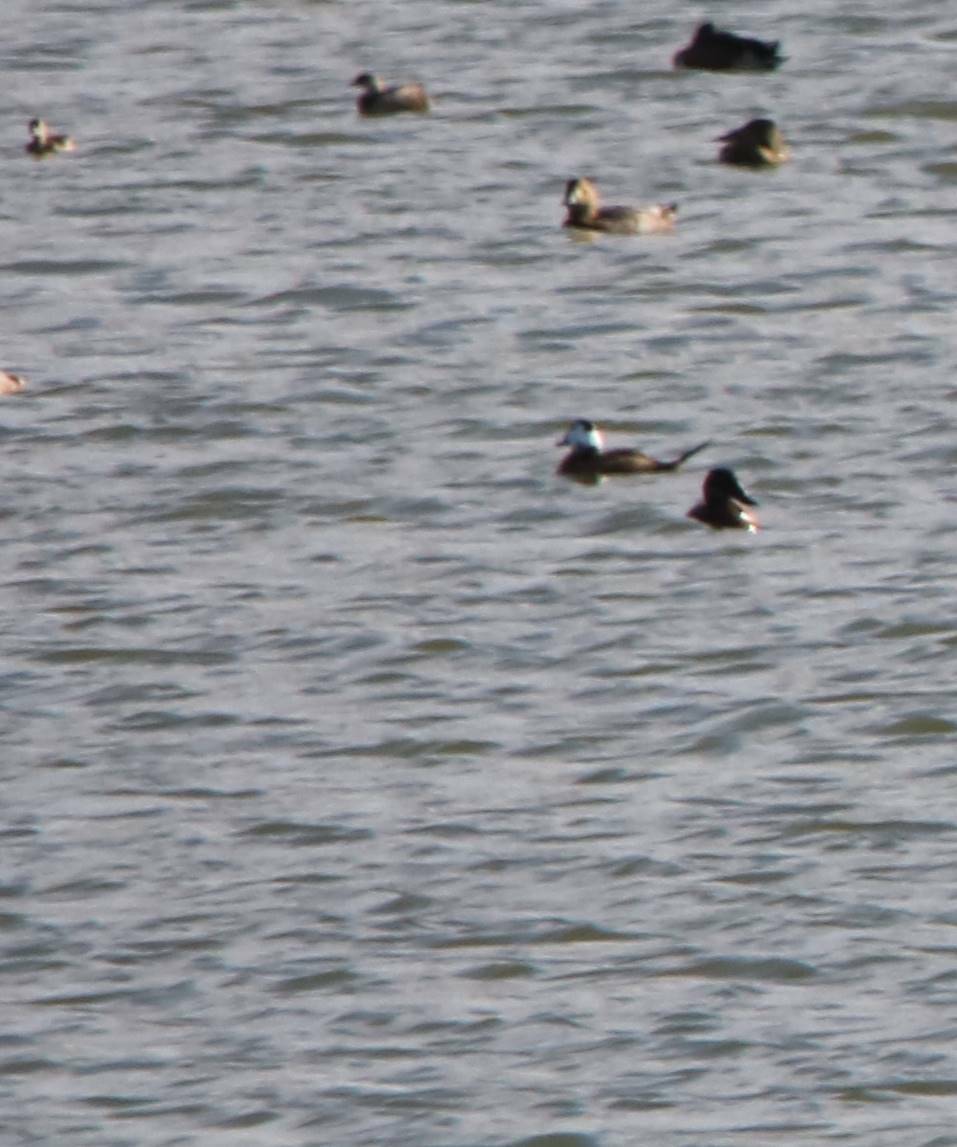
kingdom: Animalia
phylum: Chordata
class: Aves
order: Anseriformes
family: Anatidae
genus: Oxyura
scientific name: Oxyura leucocephala
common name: White-headed duck
